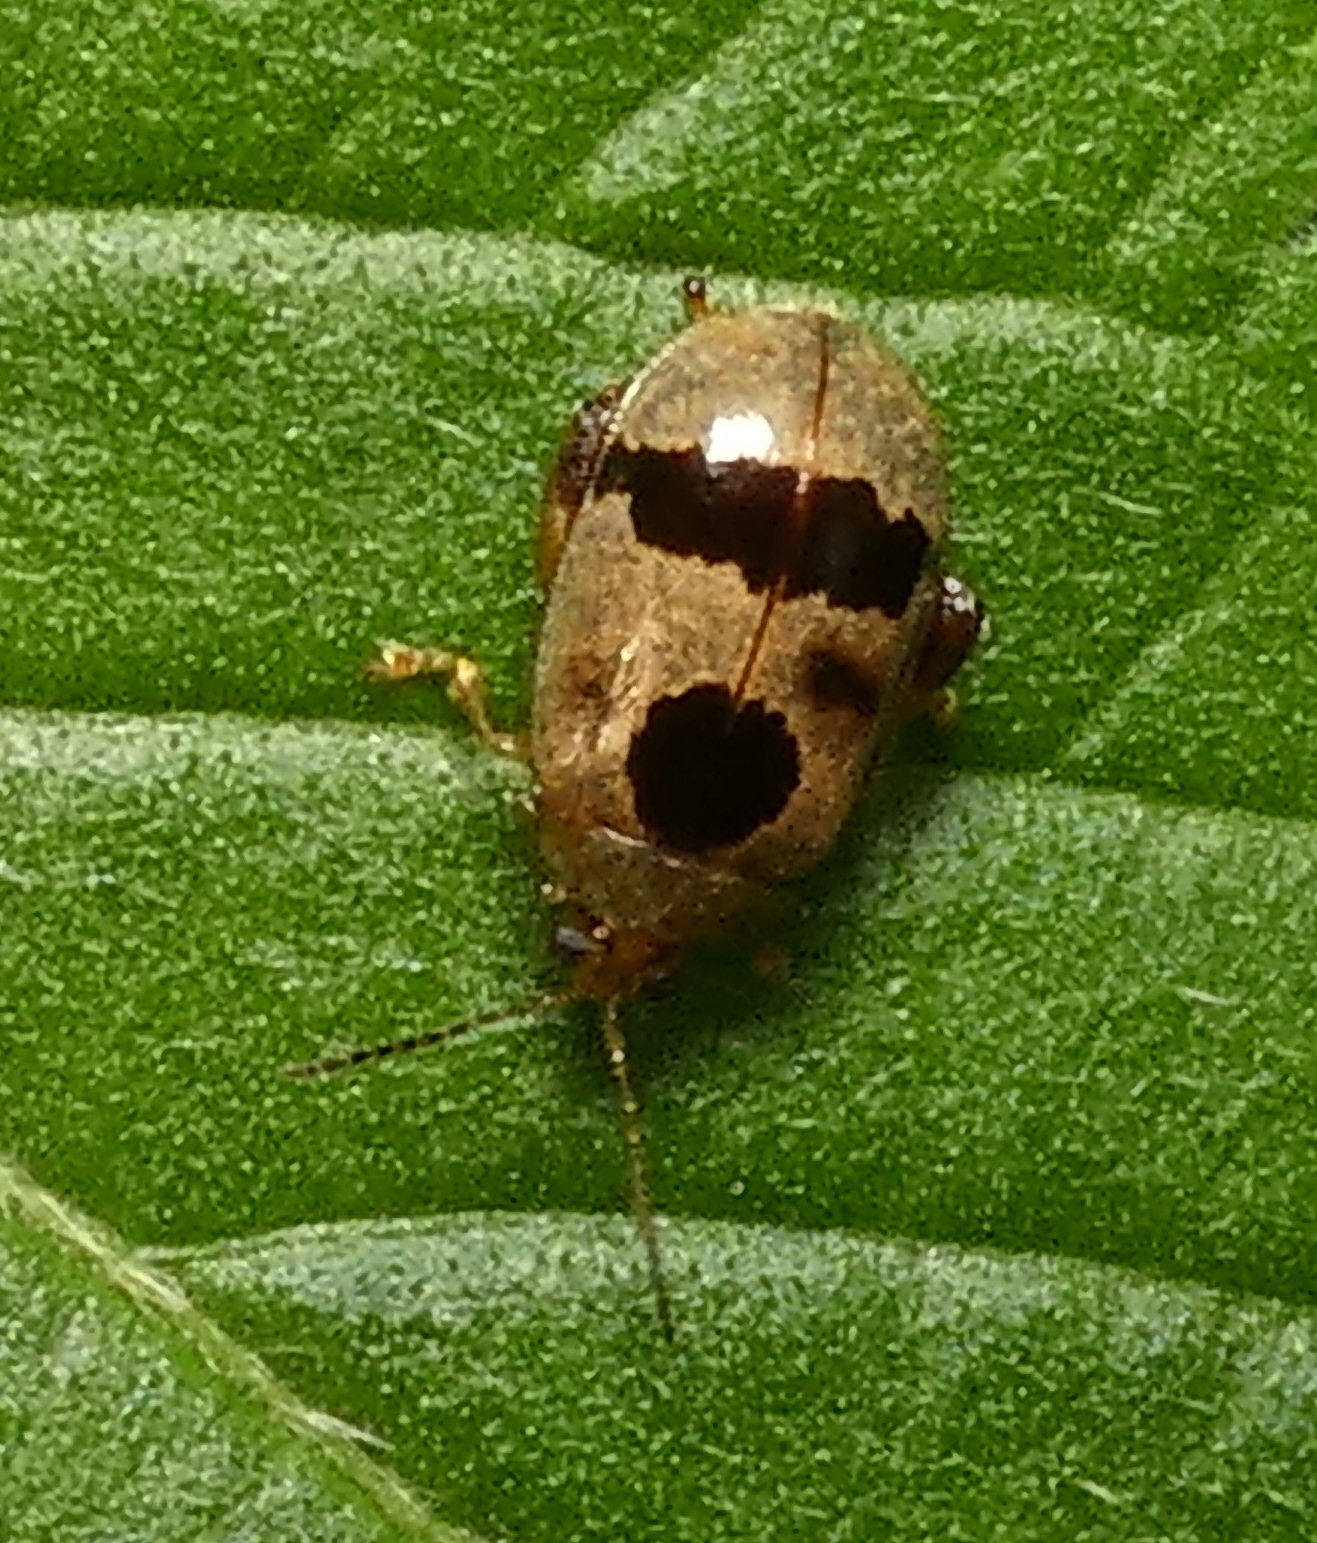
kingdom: Animalia
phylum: Arthropoda
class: Insecta
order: Coleoptera
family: Chrysomelidae
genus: Alagoasa
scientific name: Alagoasa
